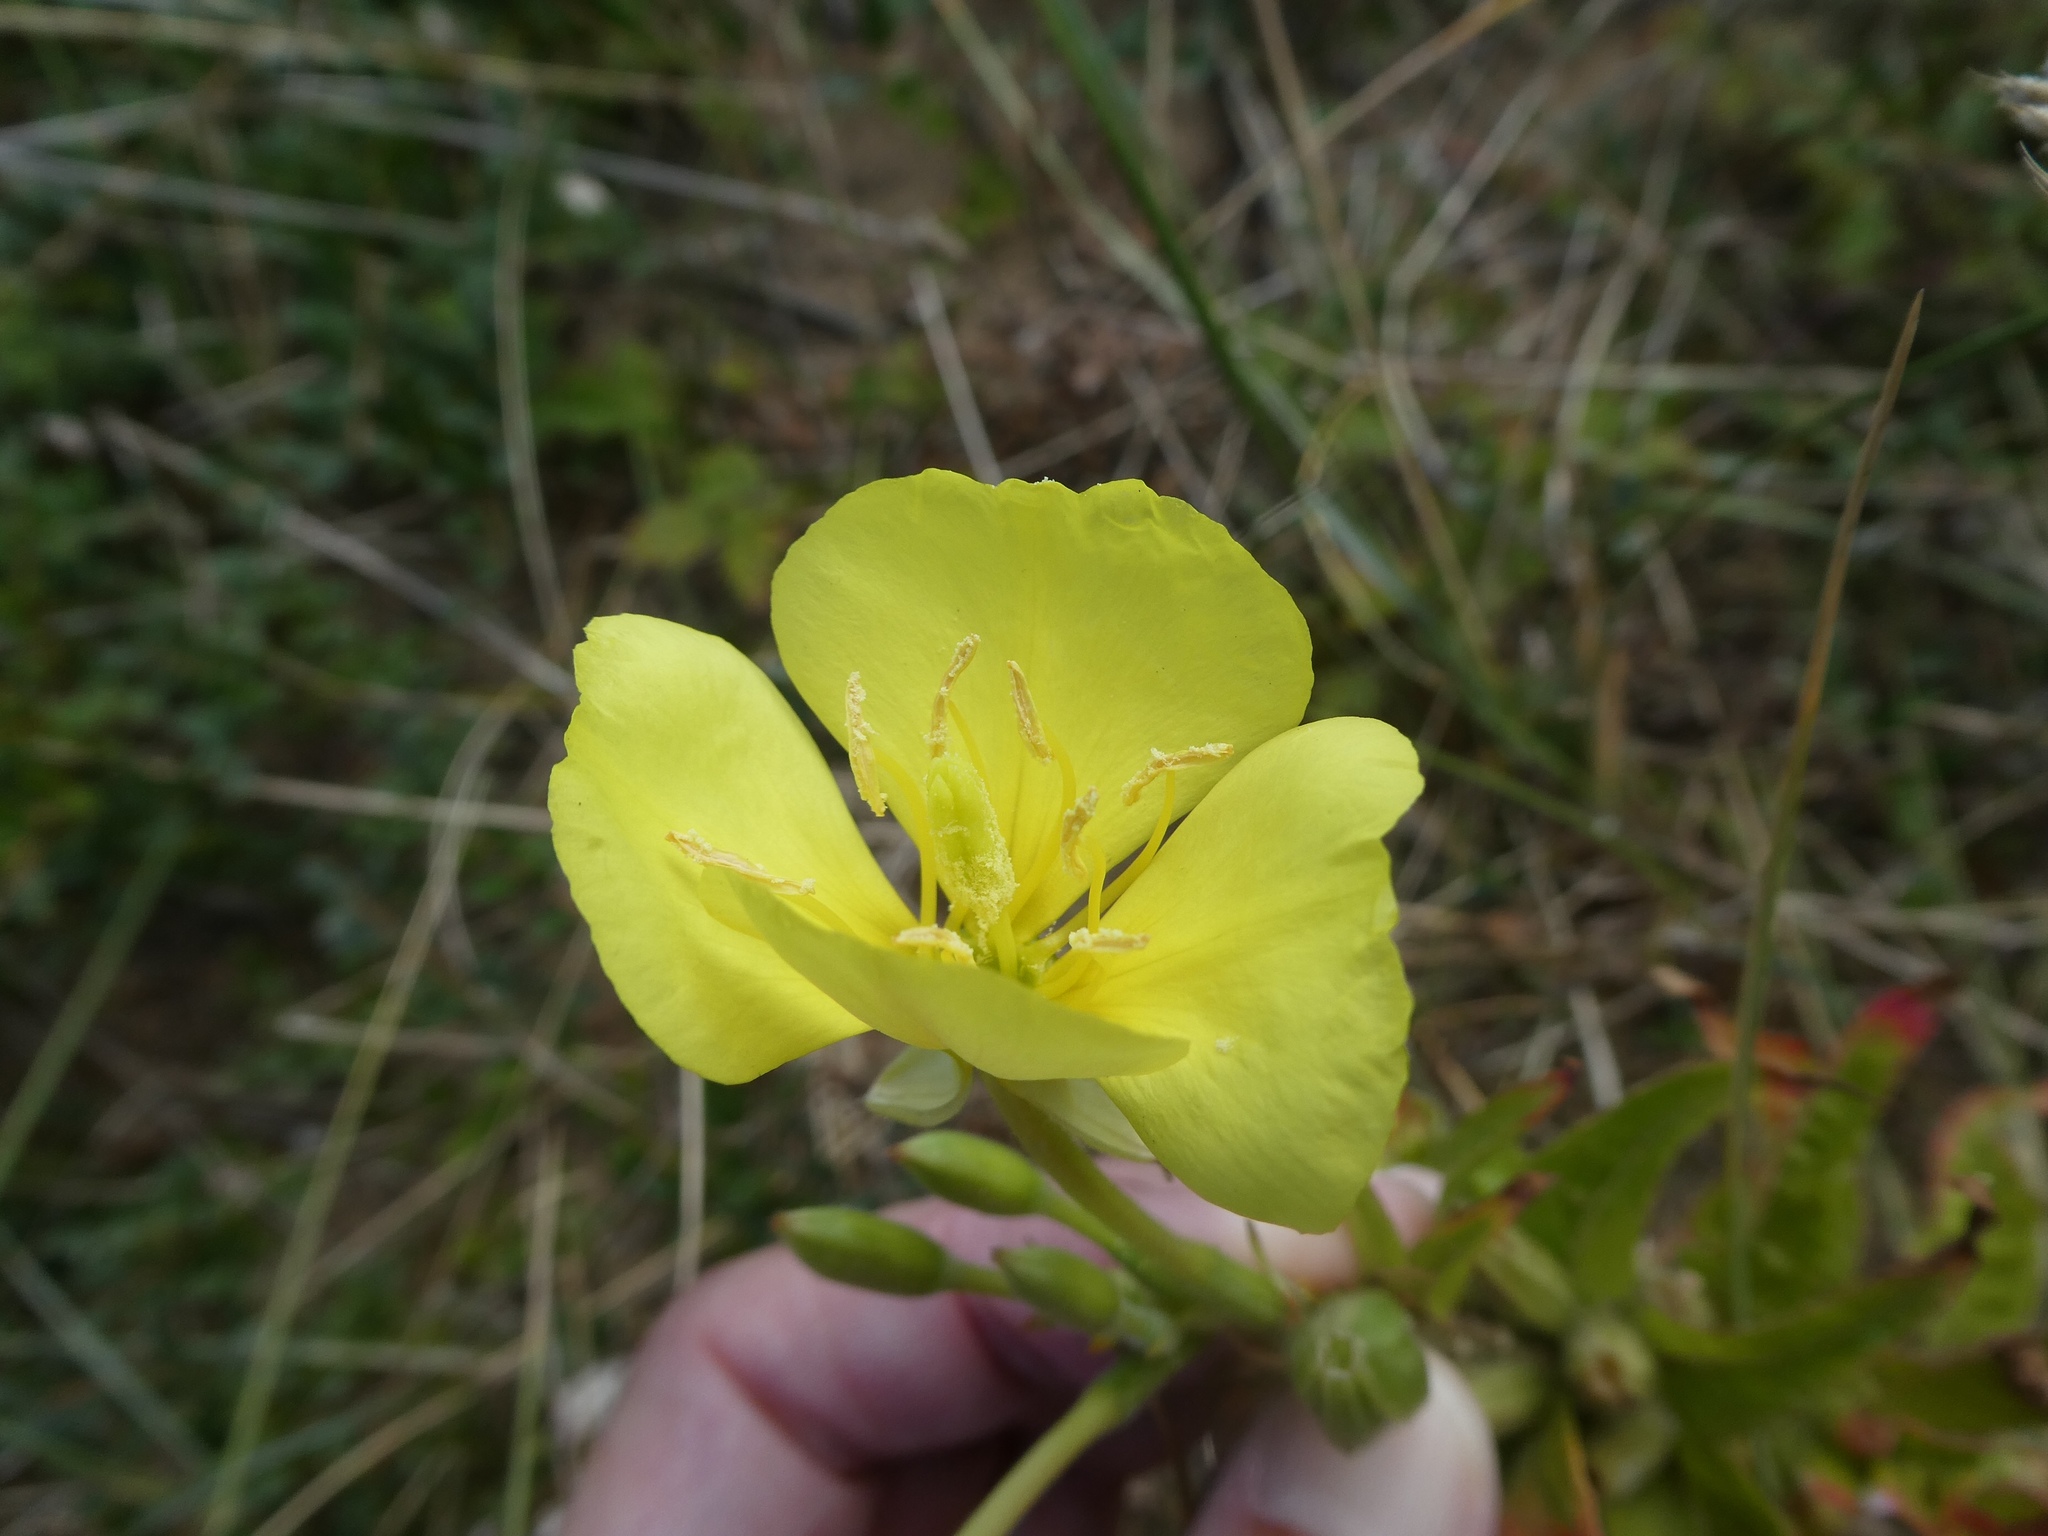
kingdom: Plantae
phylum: Tracheophyta
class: Magnoliopsida
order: Myrtales
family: Onagraceae
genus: Oenothera
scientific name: Oenothera cambrica
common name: Small-flowered evening-primrose
